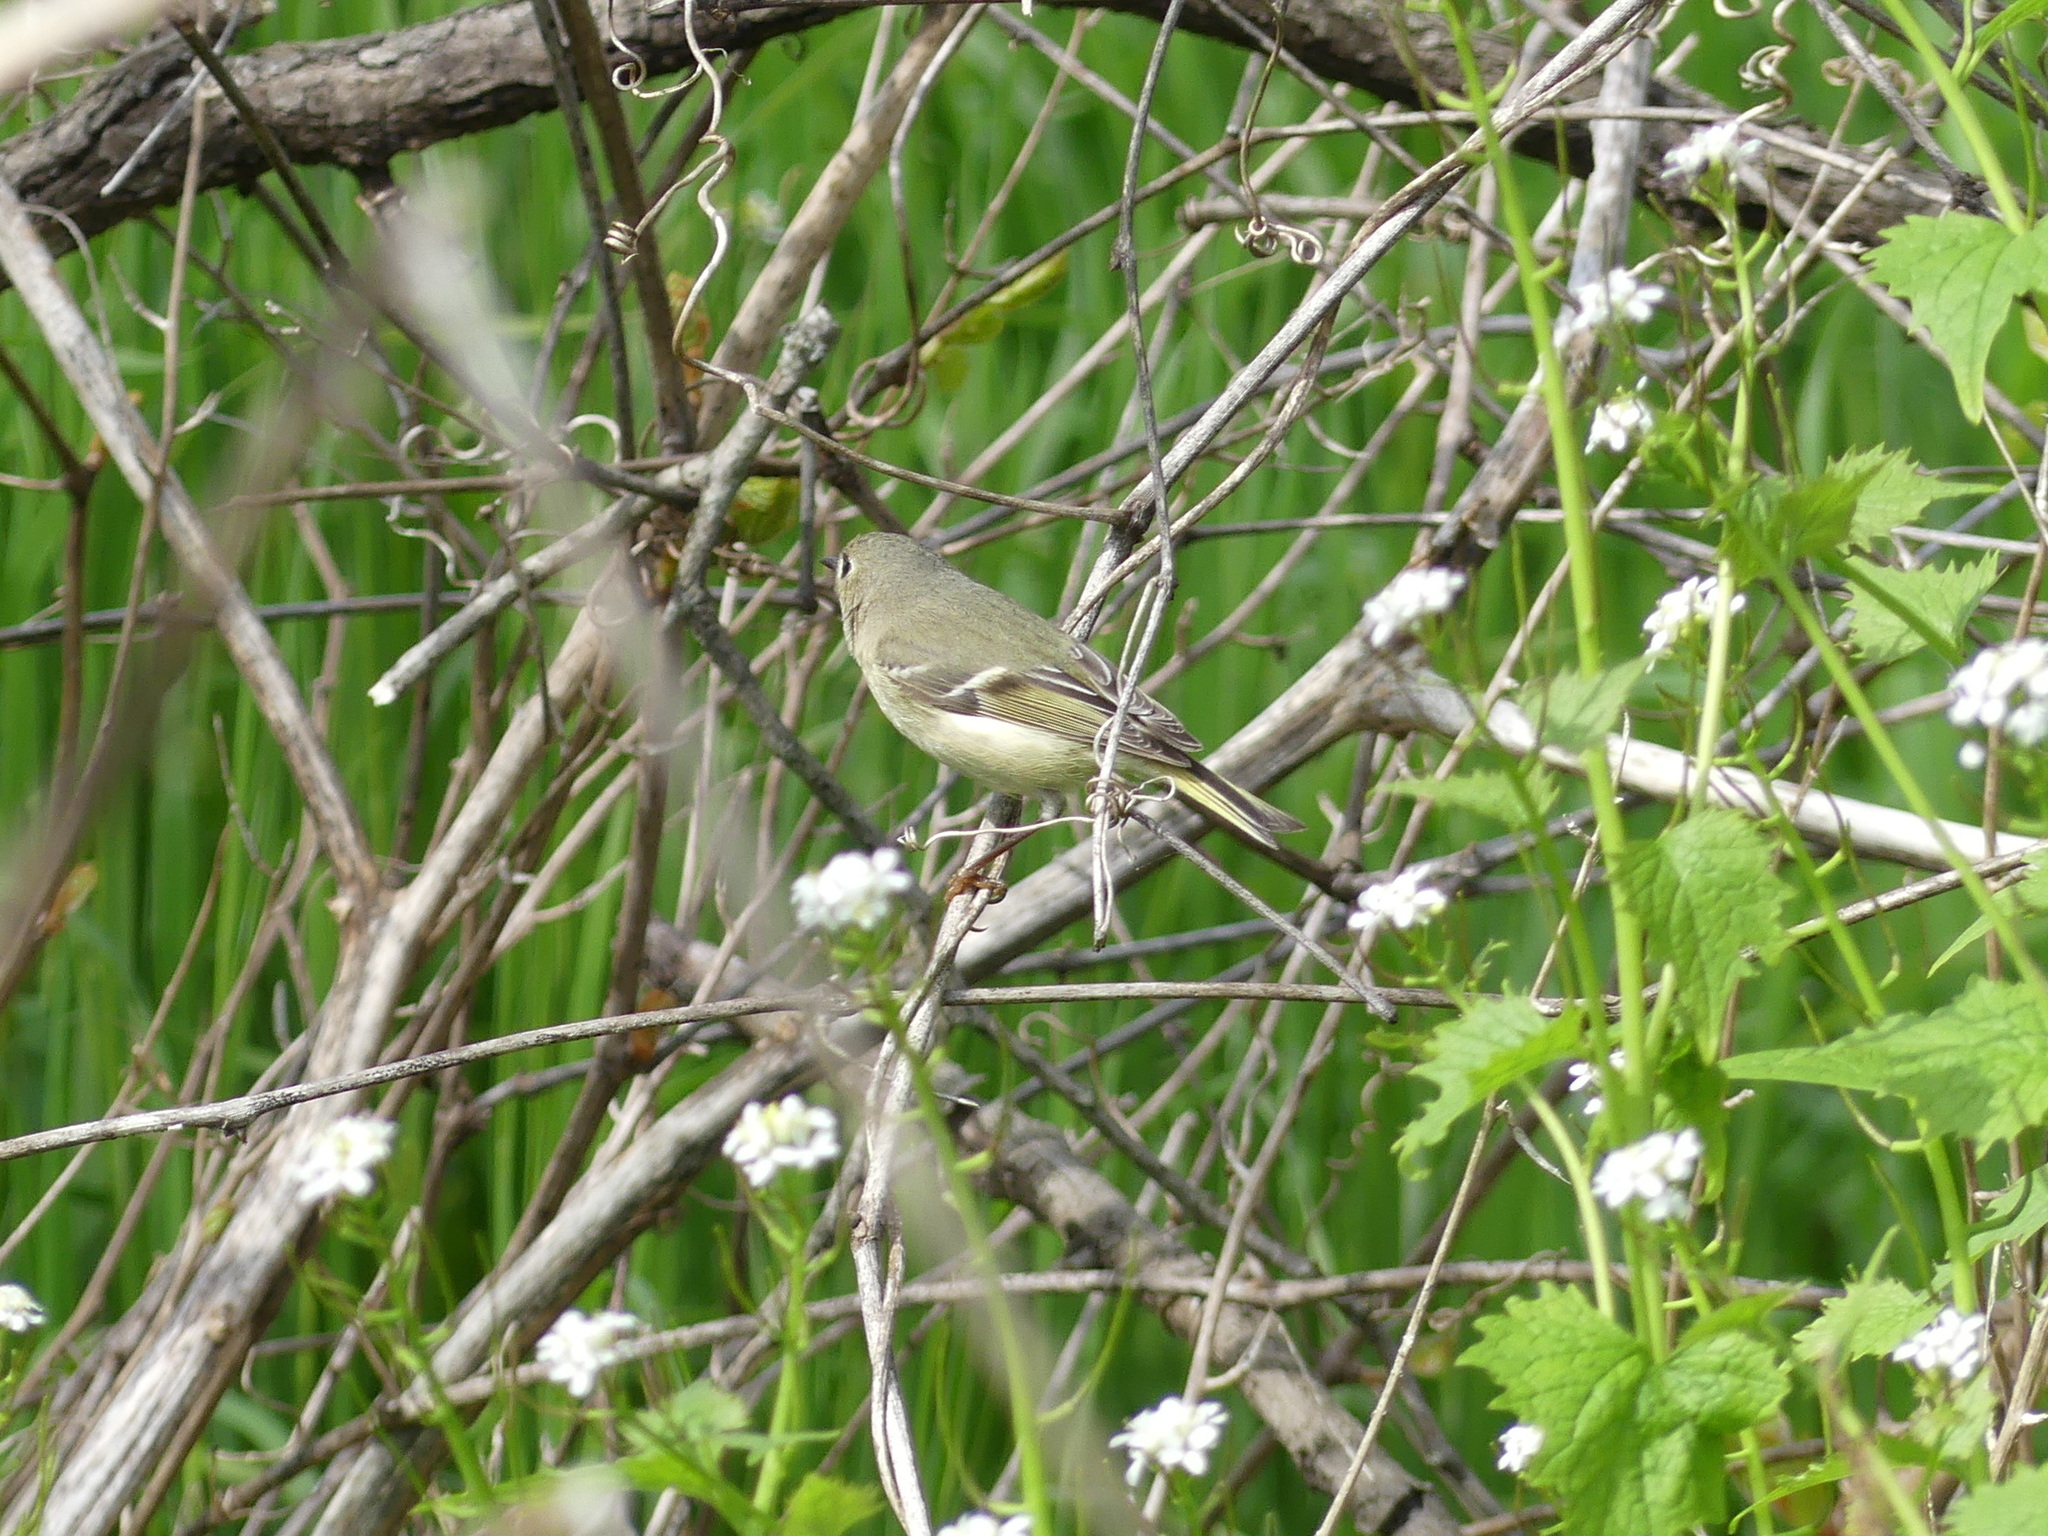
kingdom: Animalia
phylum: Chordata
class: Aves
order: Passeriformes
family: Regulidae
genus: Regulus
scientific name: Regulus calendula
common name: Ruby-crowned kinglet
